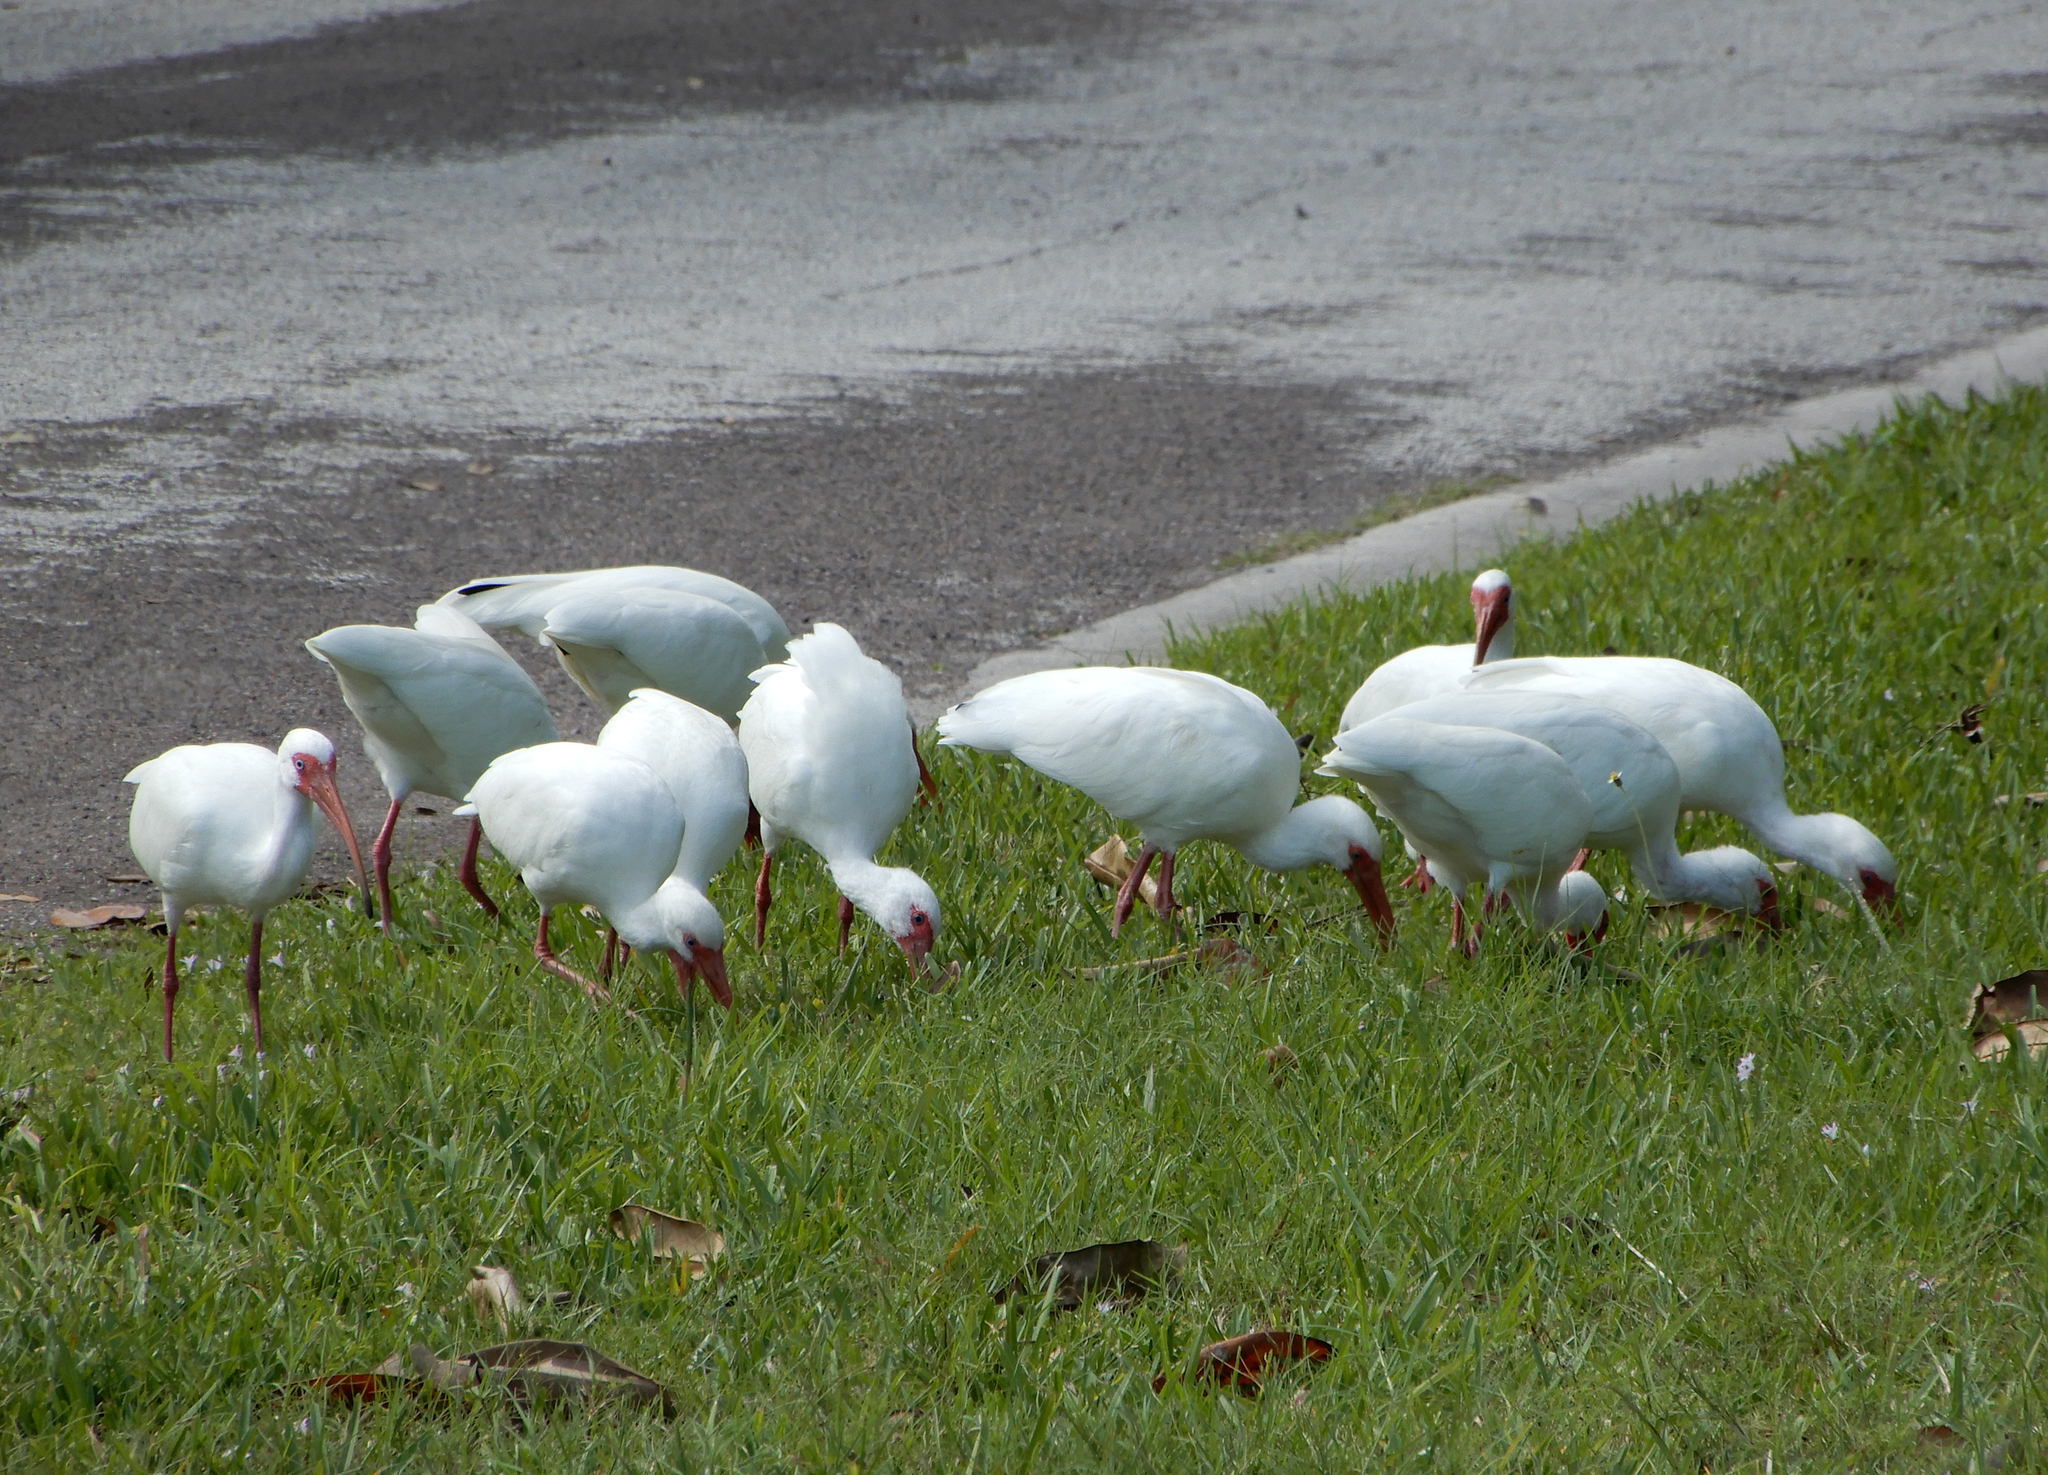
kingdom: Animalia
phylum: Chordata
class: Aves
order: Pelecaniformes
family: Threskiornithidae
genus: Eudocimus
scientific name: Eudocimus albus
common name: White ibis
